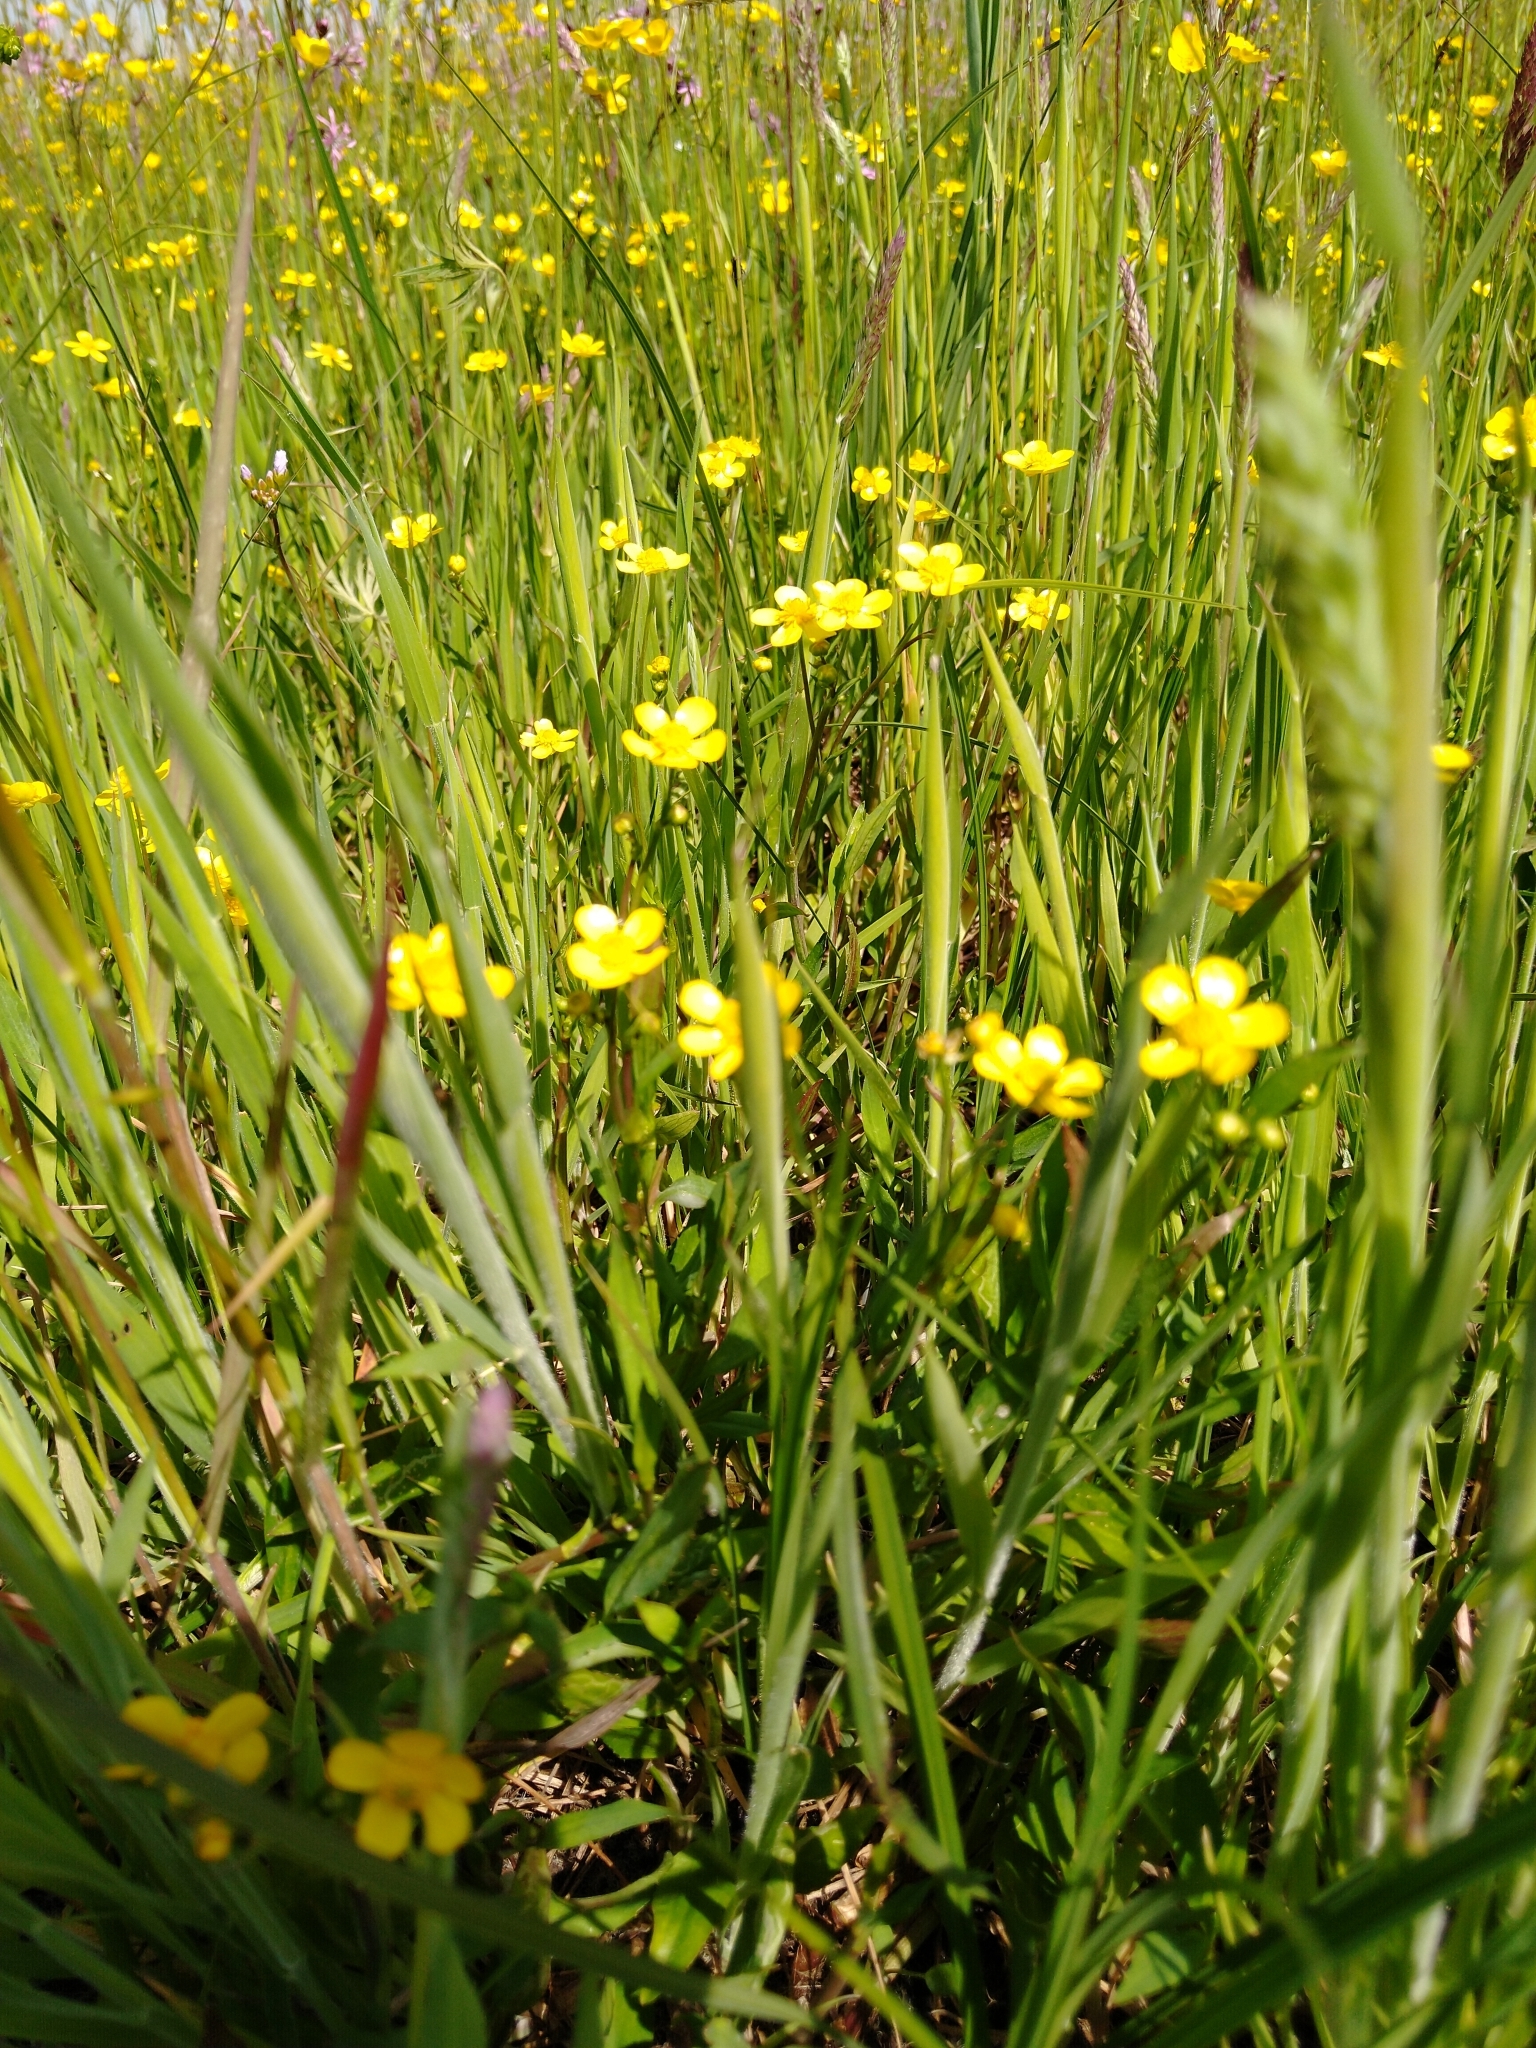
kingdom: Plantae
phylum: Tracheophyta
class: Magnoliopsida
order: Ranunculales
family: Ranunculaceae
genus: Ranunculus
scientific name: Ranunculus flammula
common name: Lesser spearwort
